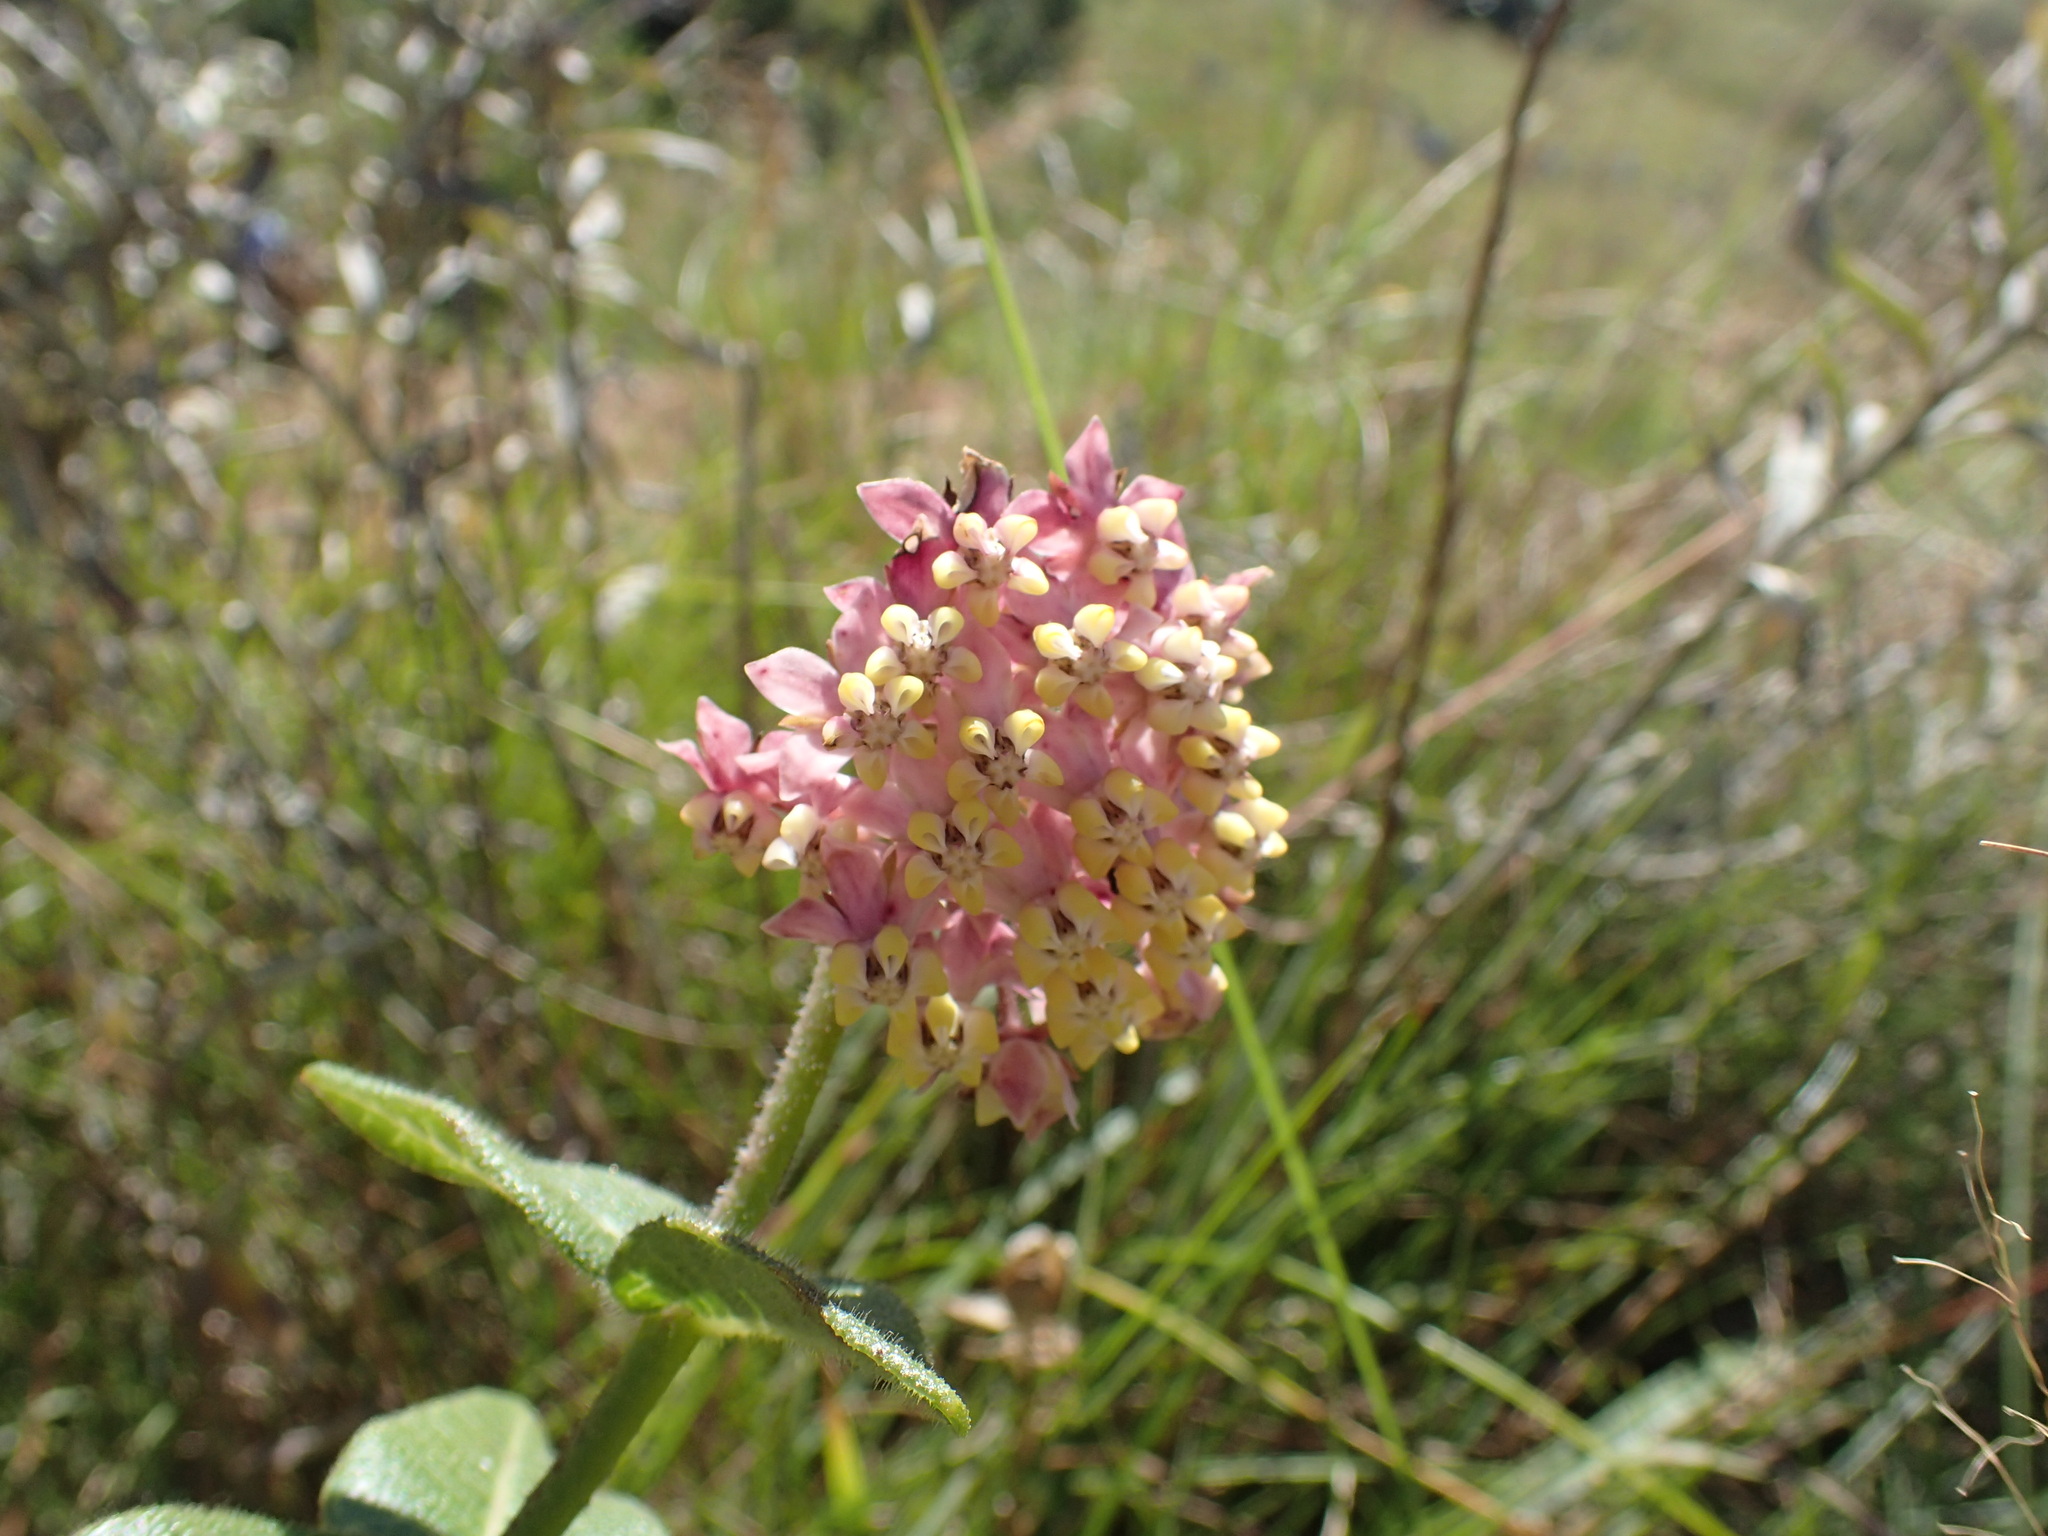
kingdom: Plantae
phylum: Tracheophyta
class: Magnoliopsida
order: Gentianales
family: Apocynaceae
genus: Asclepias
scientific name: Asclepias albens
